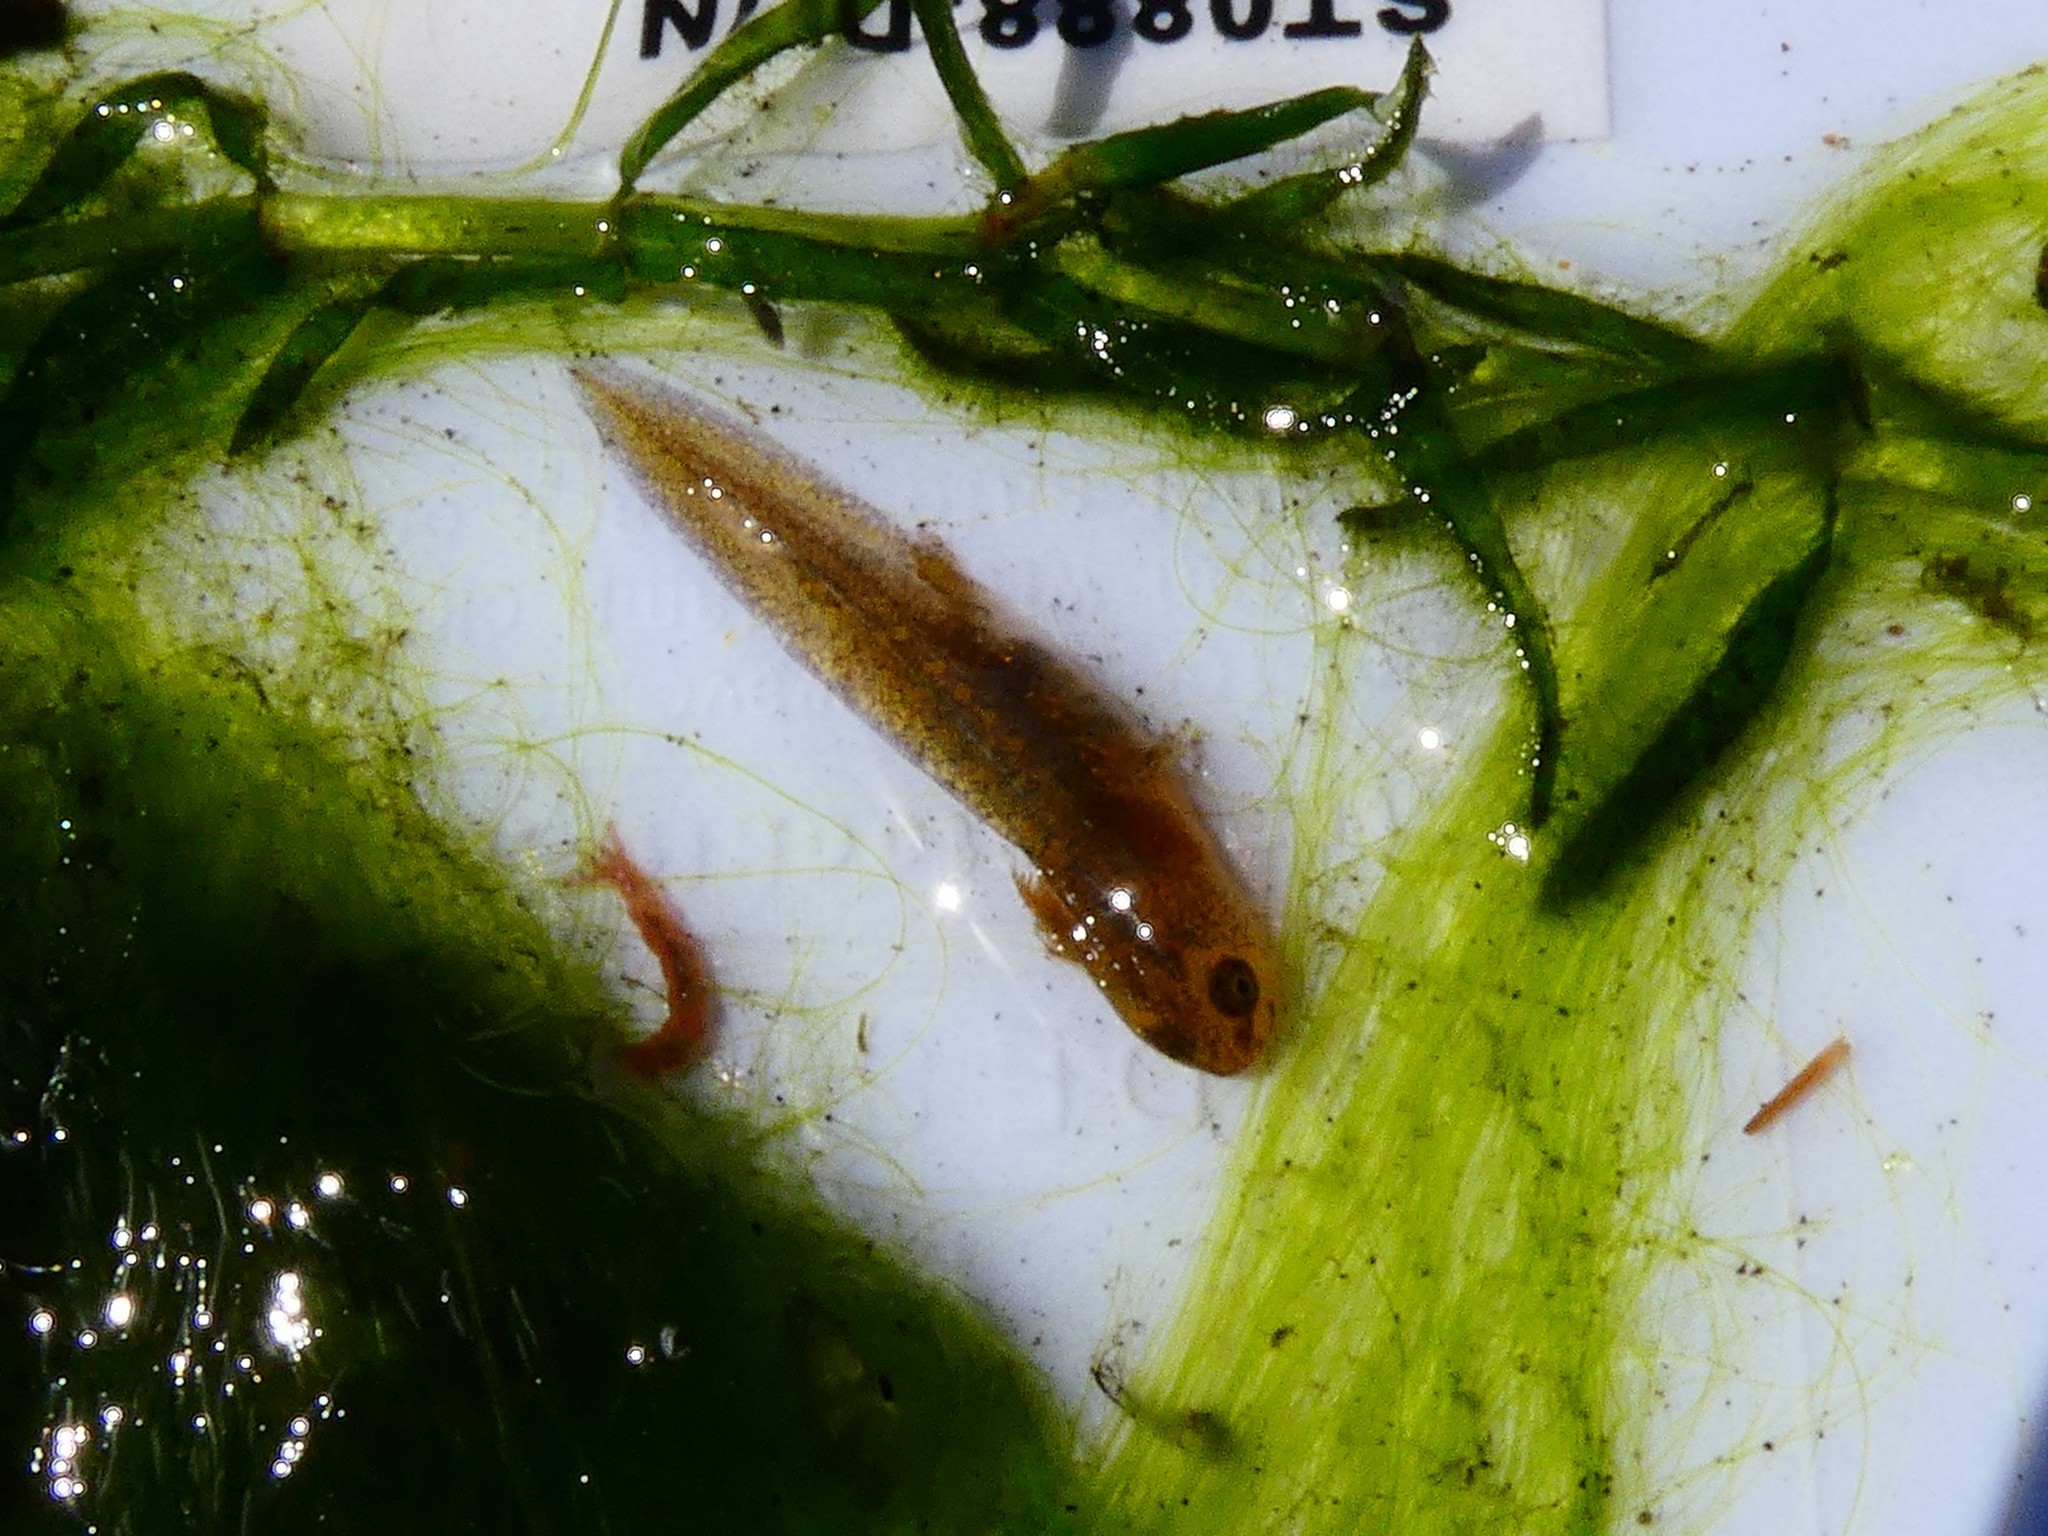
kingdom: Animalia
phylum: Chordata
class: Amphibia
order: Caudata
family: Salamandridae
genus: Lissotriton
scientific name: Lissotriton vulgaris
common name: Smooth newt
